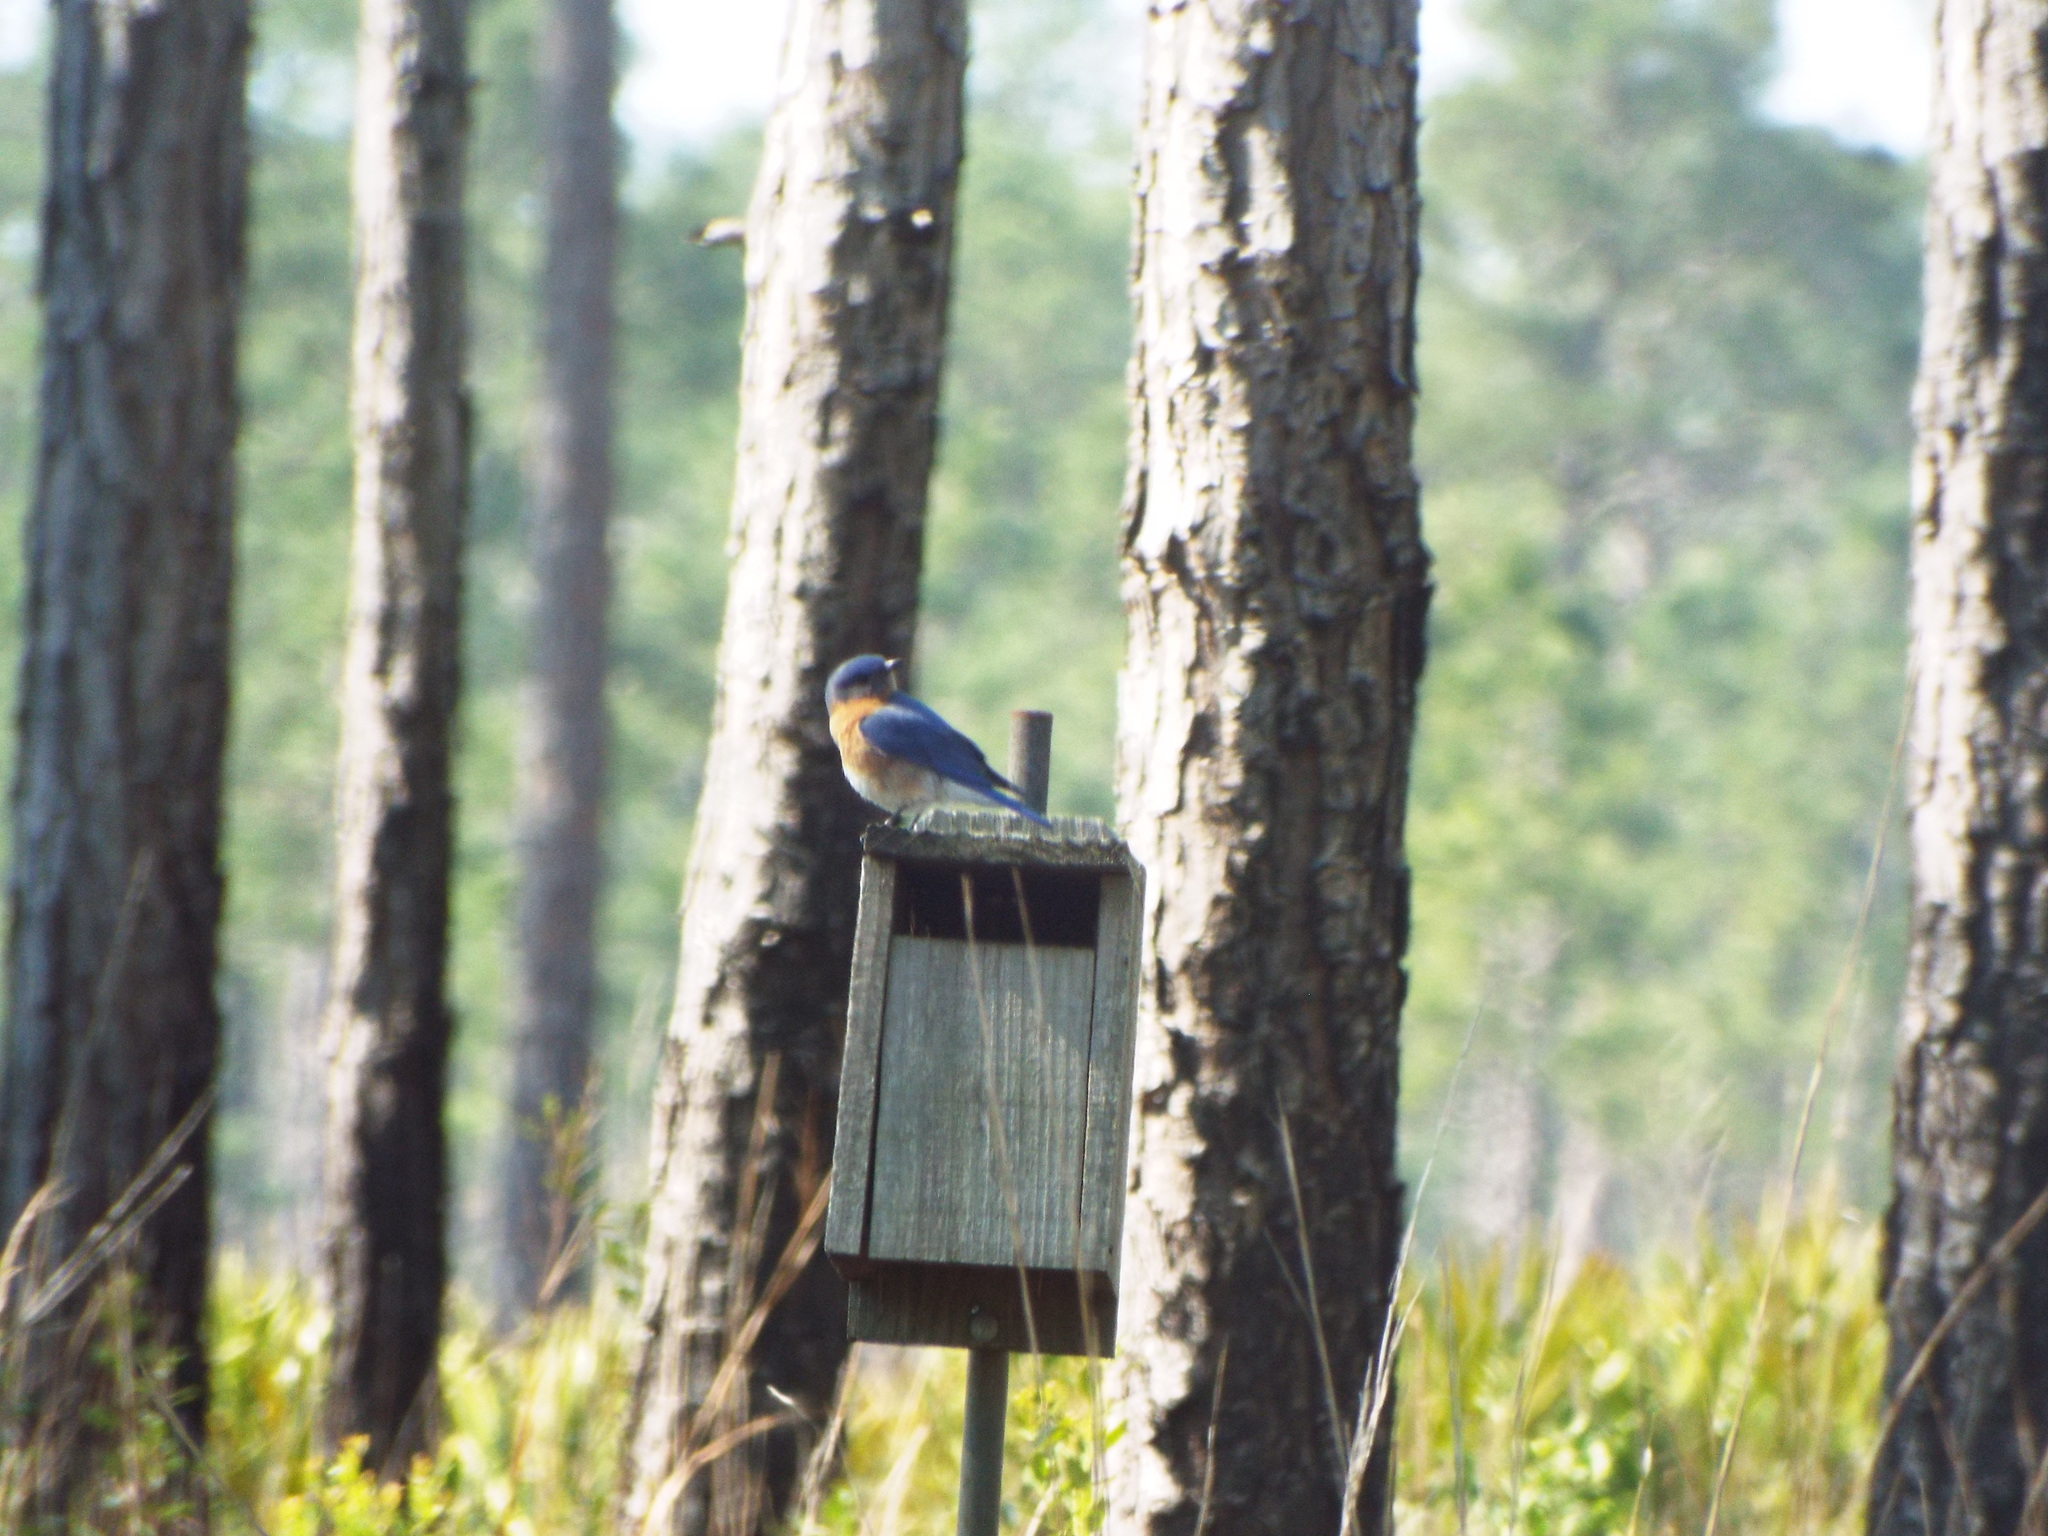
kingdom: Animalia
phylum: Chordata
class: Aves
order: Passeriformes
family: Turdidae
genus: Sialia
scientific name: Sialia sialis
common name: Eastern bluebird
